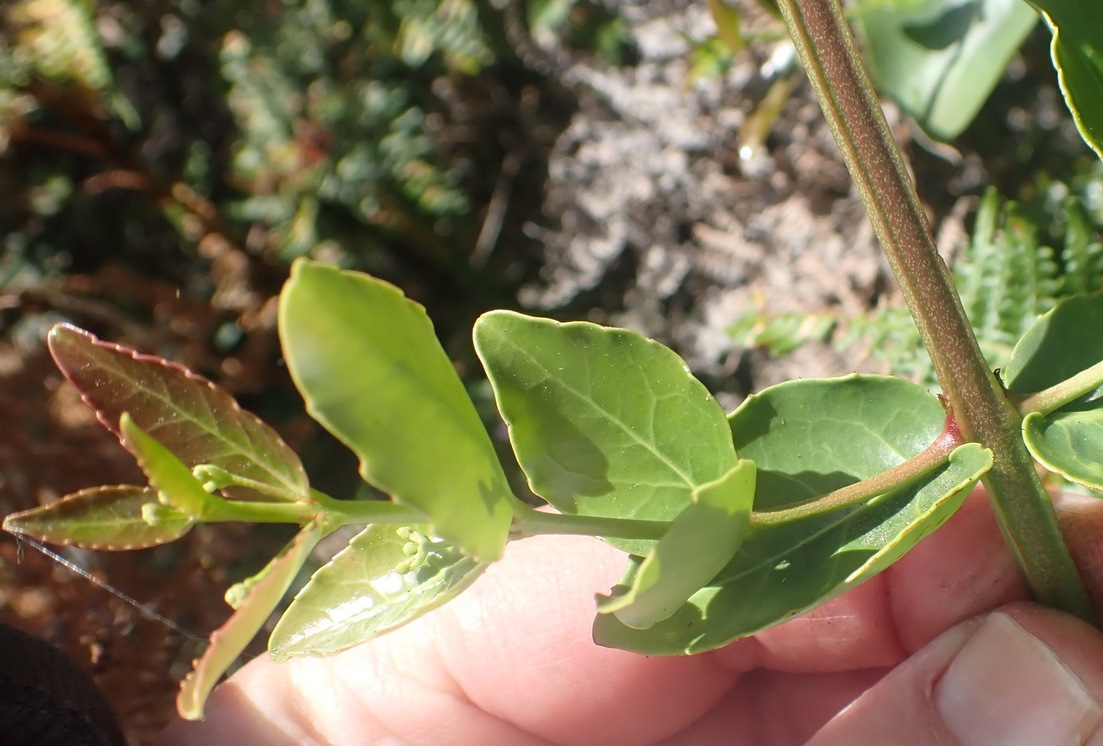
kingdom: Plantae
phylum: Tracheophyta
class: Magnoliopsida
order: Celastrales
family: Celastraceae
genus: Lauridia
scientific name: Lauridia tetragona
